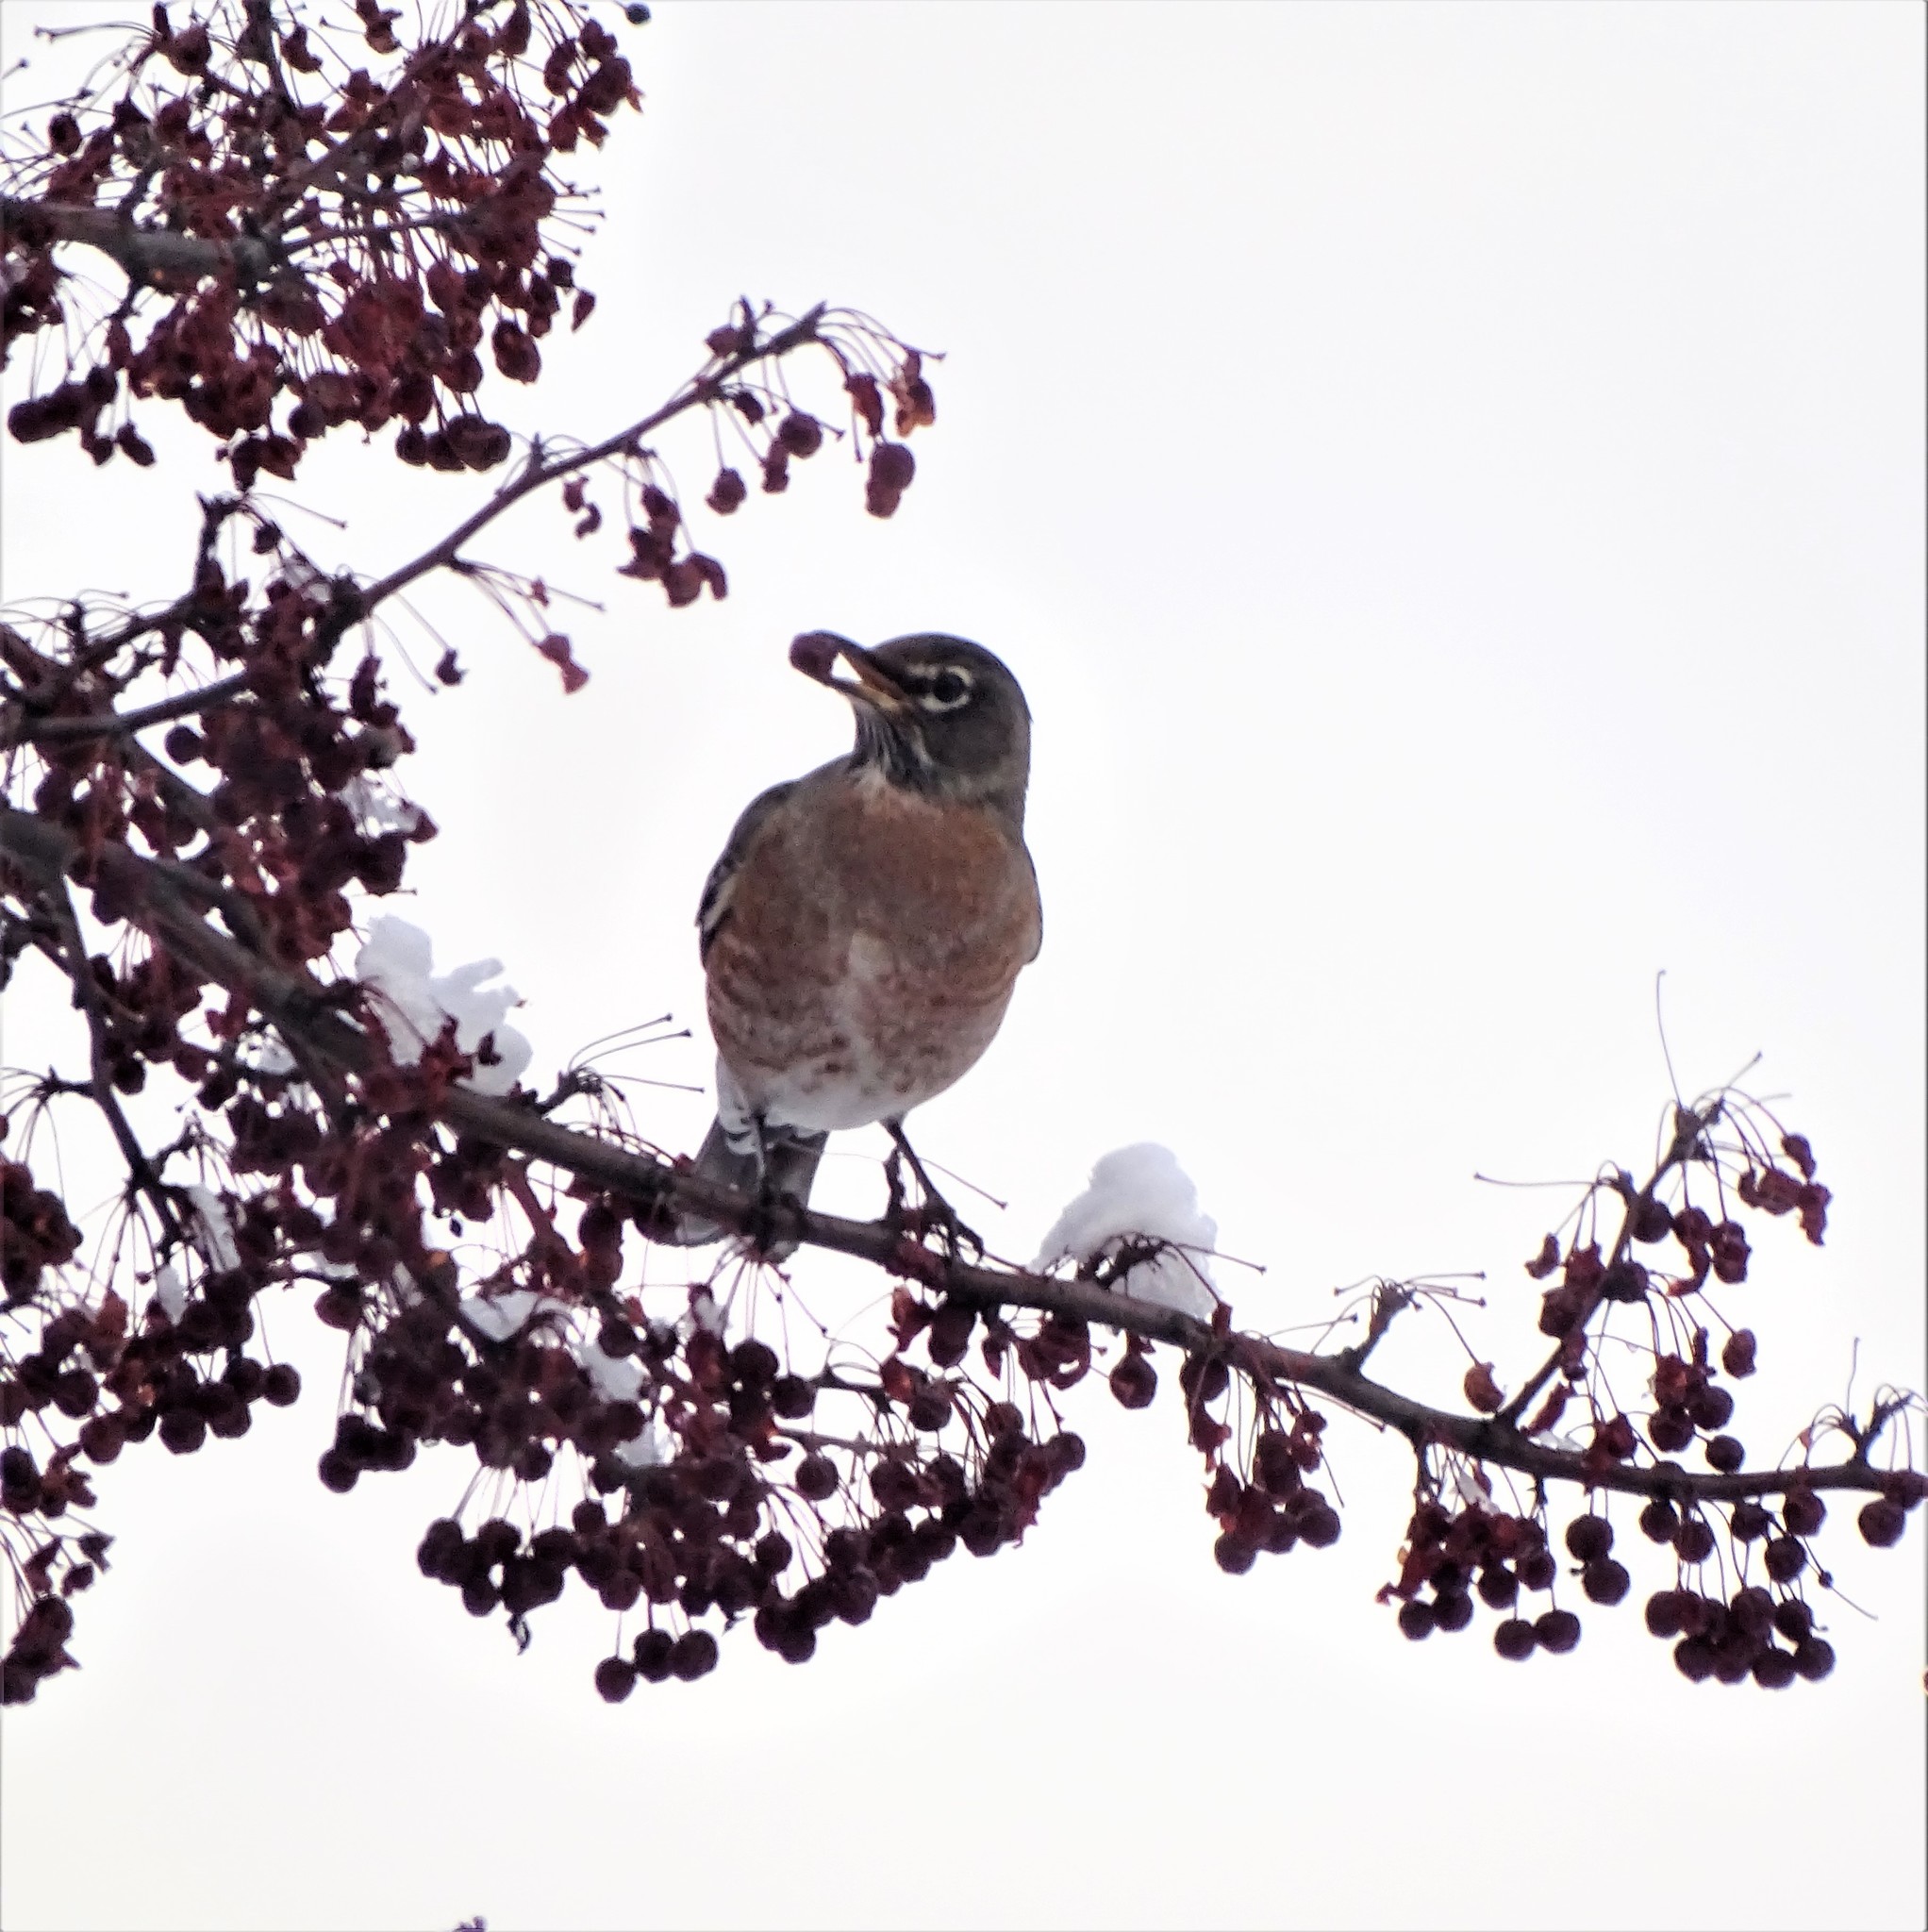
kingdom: Animalia
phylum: Chordata
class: Aves
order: Passeriformes
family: Turdidae
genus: Turdus
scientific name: Turdus migratorius
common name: American robin
